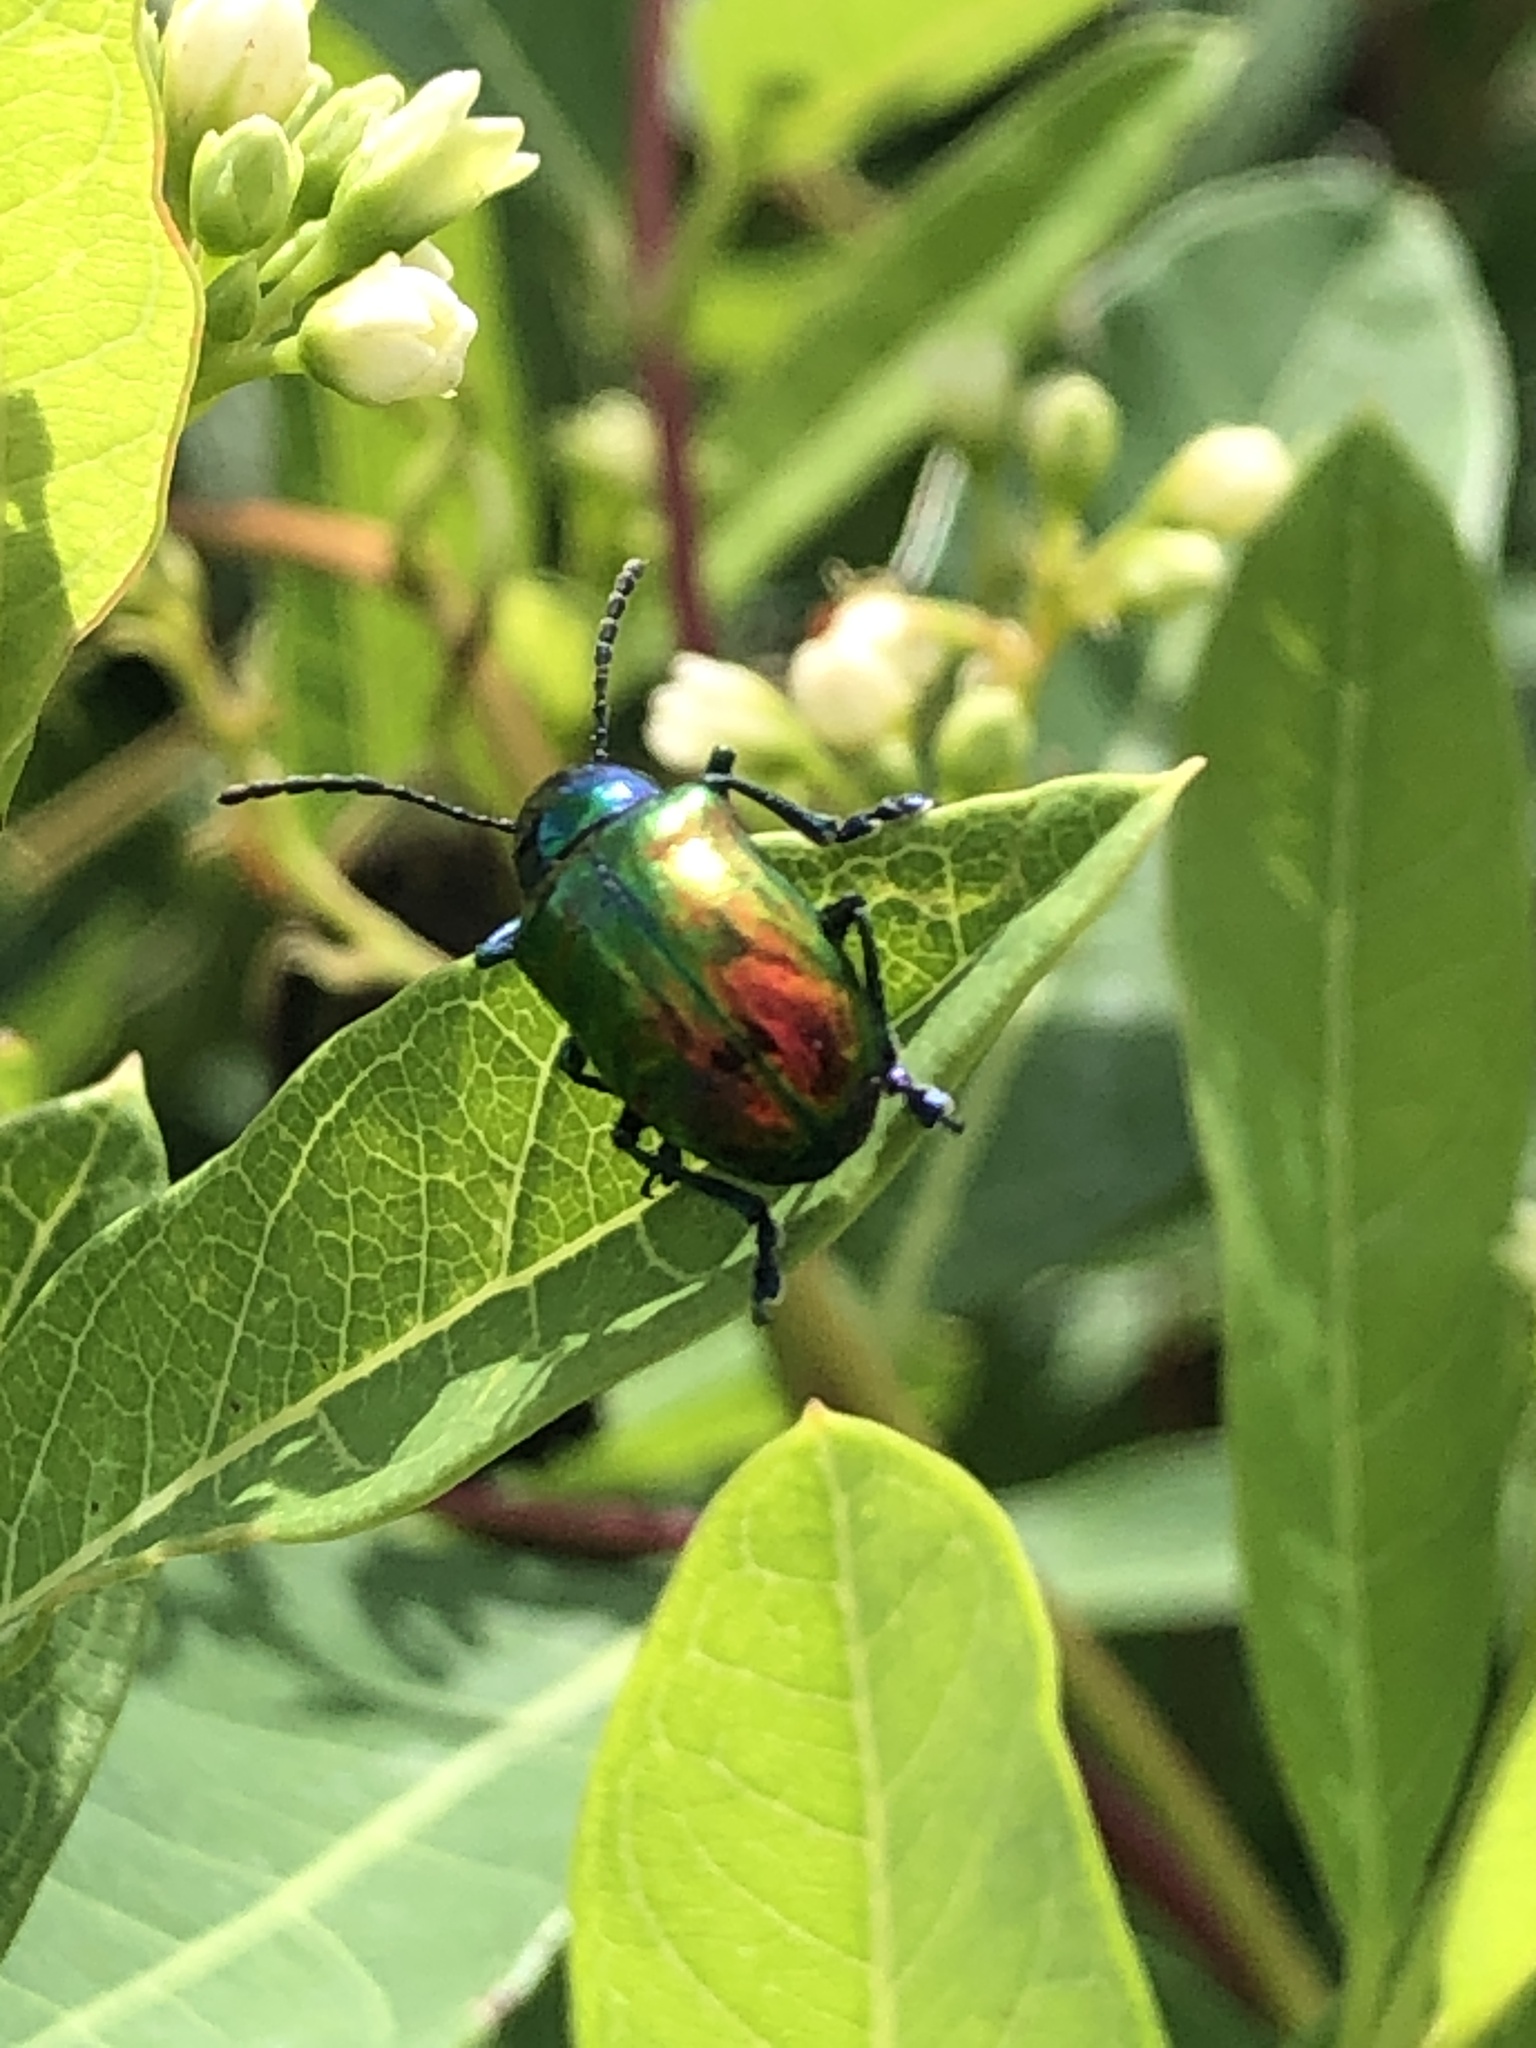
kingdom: Animalia
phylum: Arthropoda
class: Insecta
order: Coleoptera
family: Chrysomelidae
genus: Chrysochus
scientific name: Chrysochus auratus
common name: Dogbane leaf beetle
